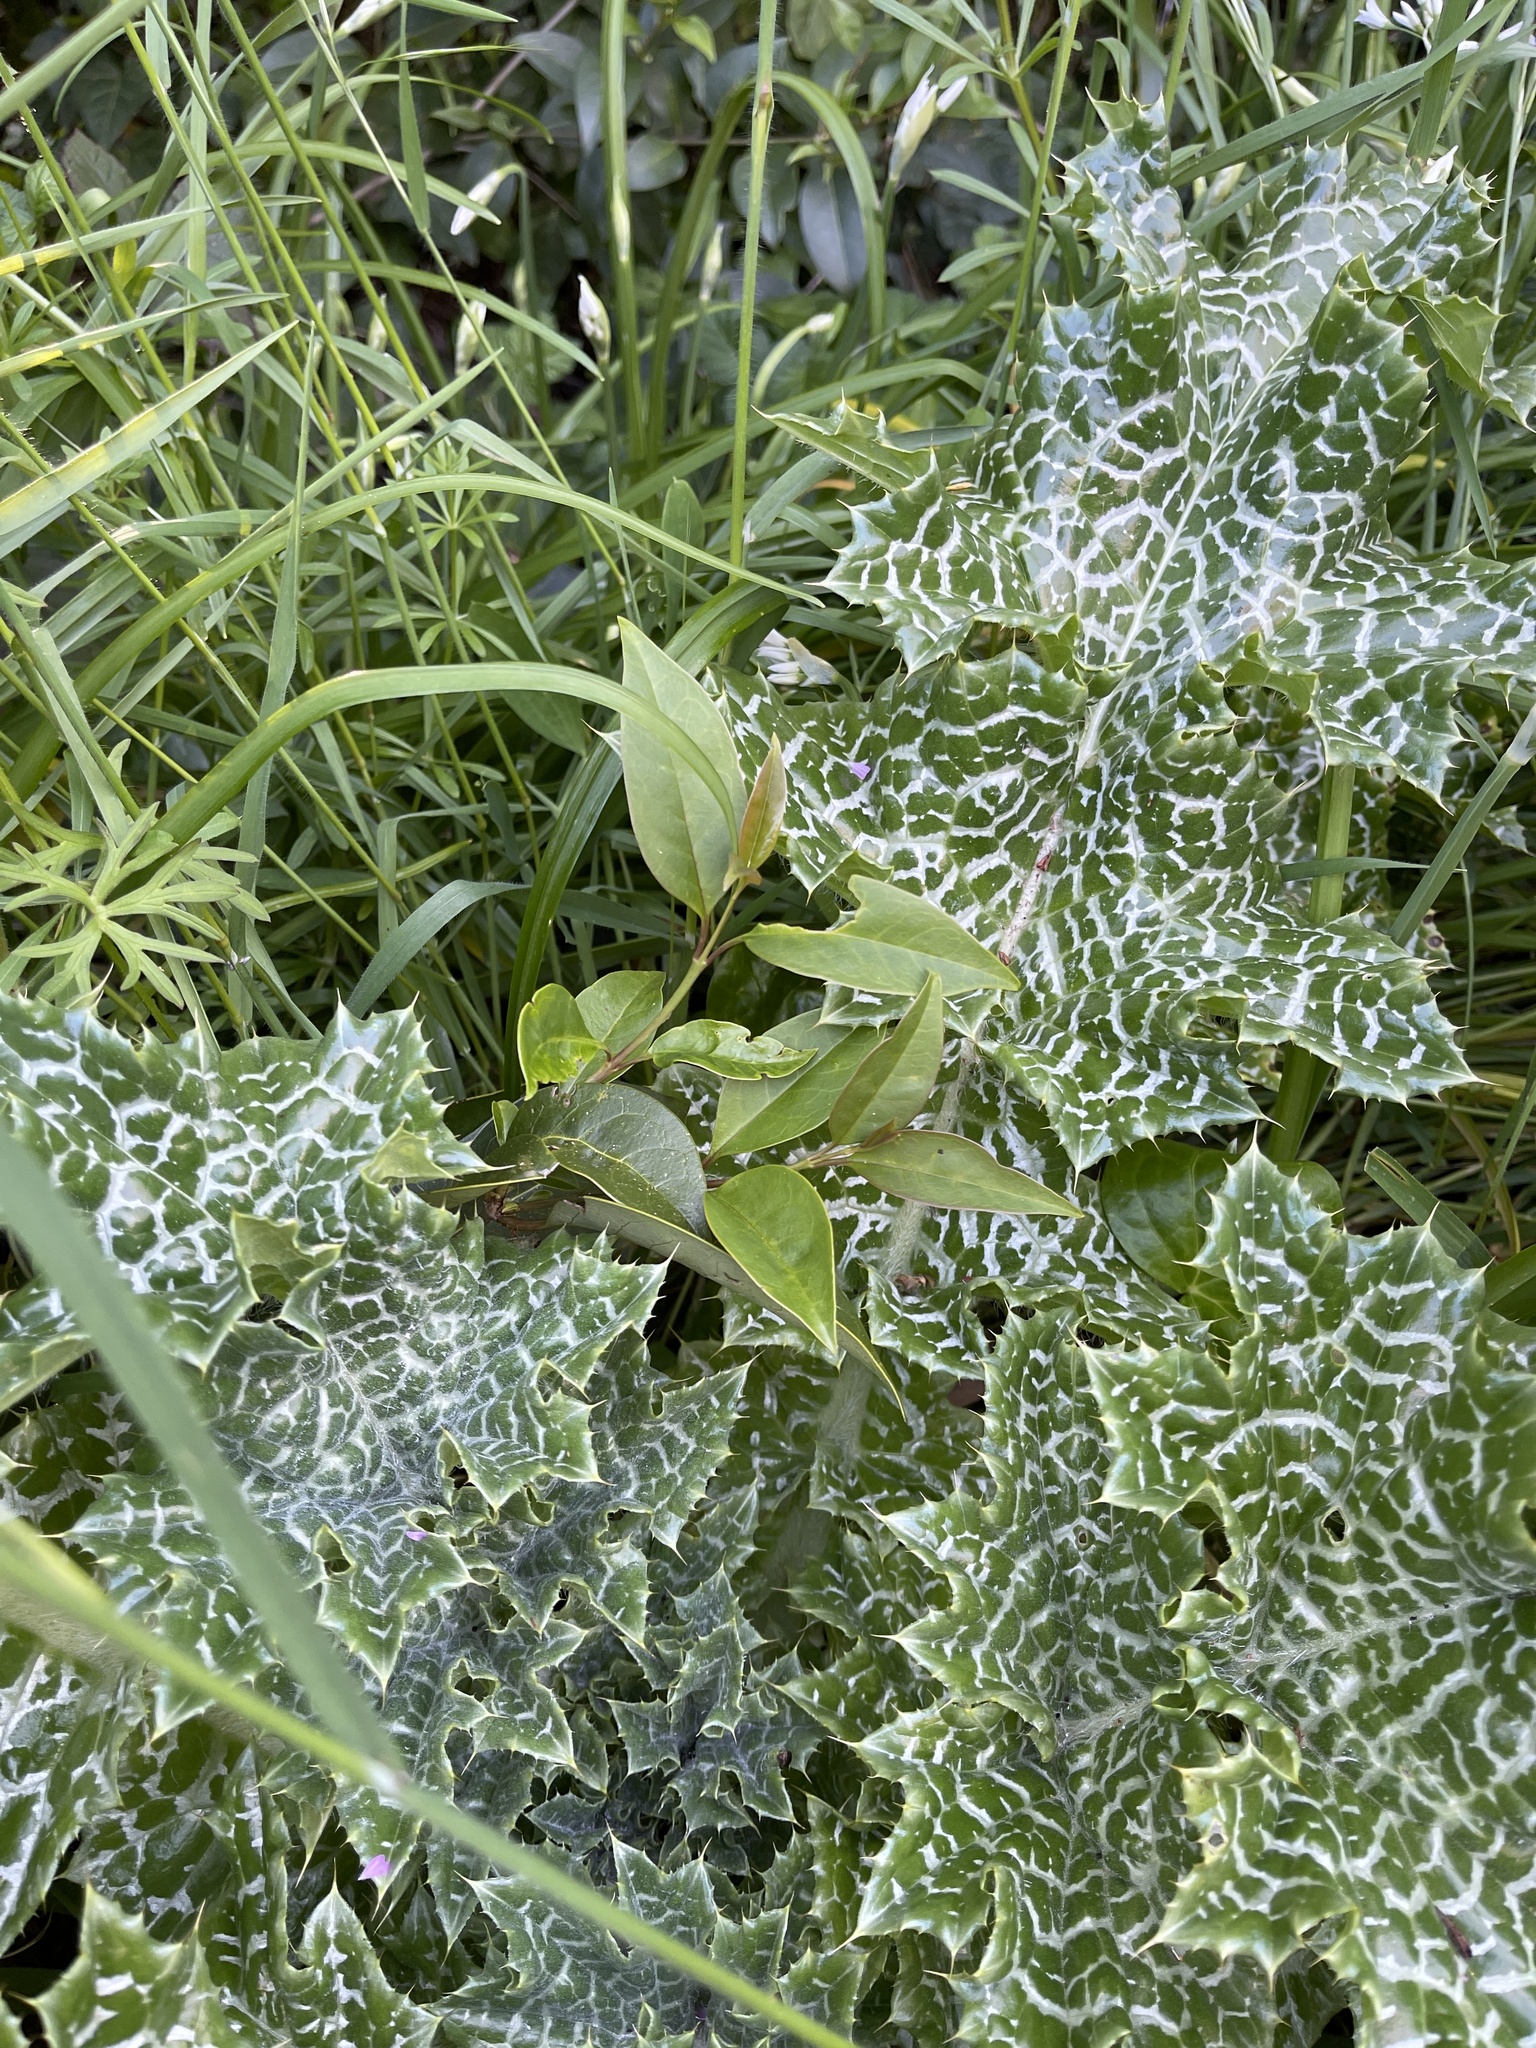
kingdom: Plantae
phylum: Tracheophyta
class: Magnoliopsida
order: Asterales
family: Asteraceae
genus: Silybum
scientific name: Silybum marianum
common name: Milk thistle
